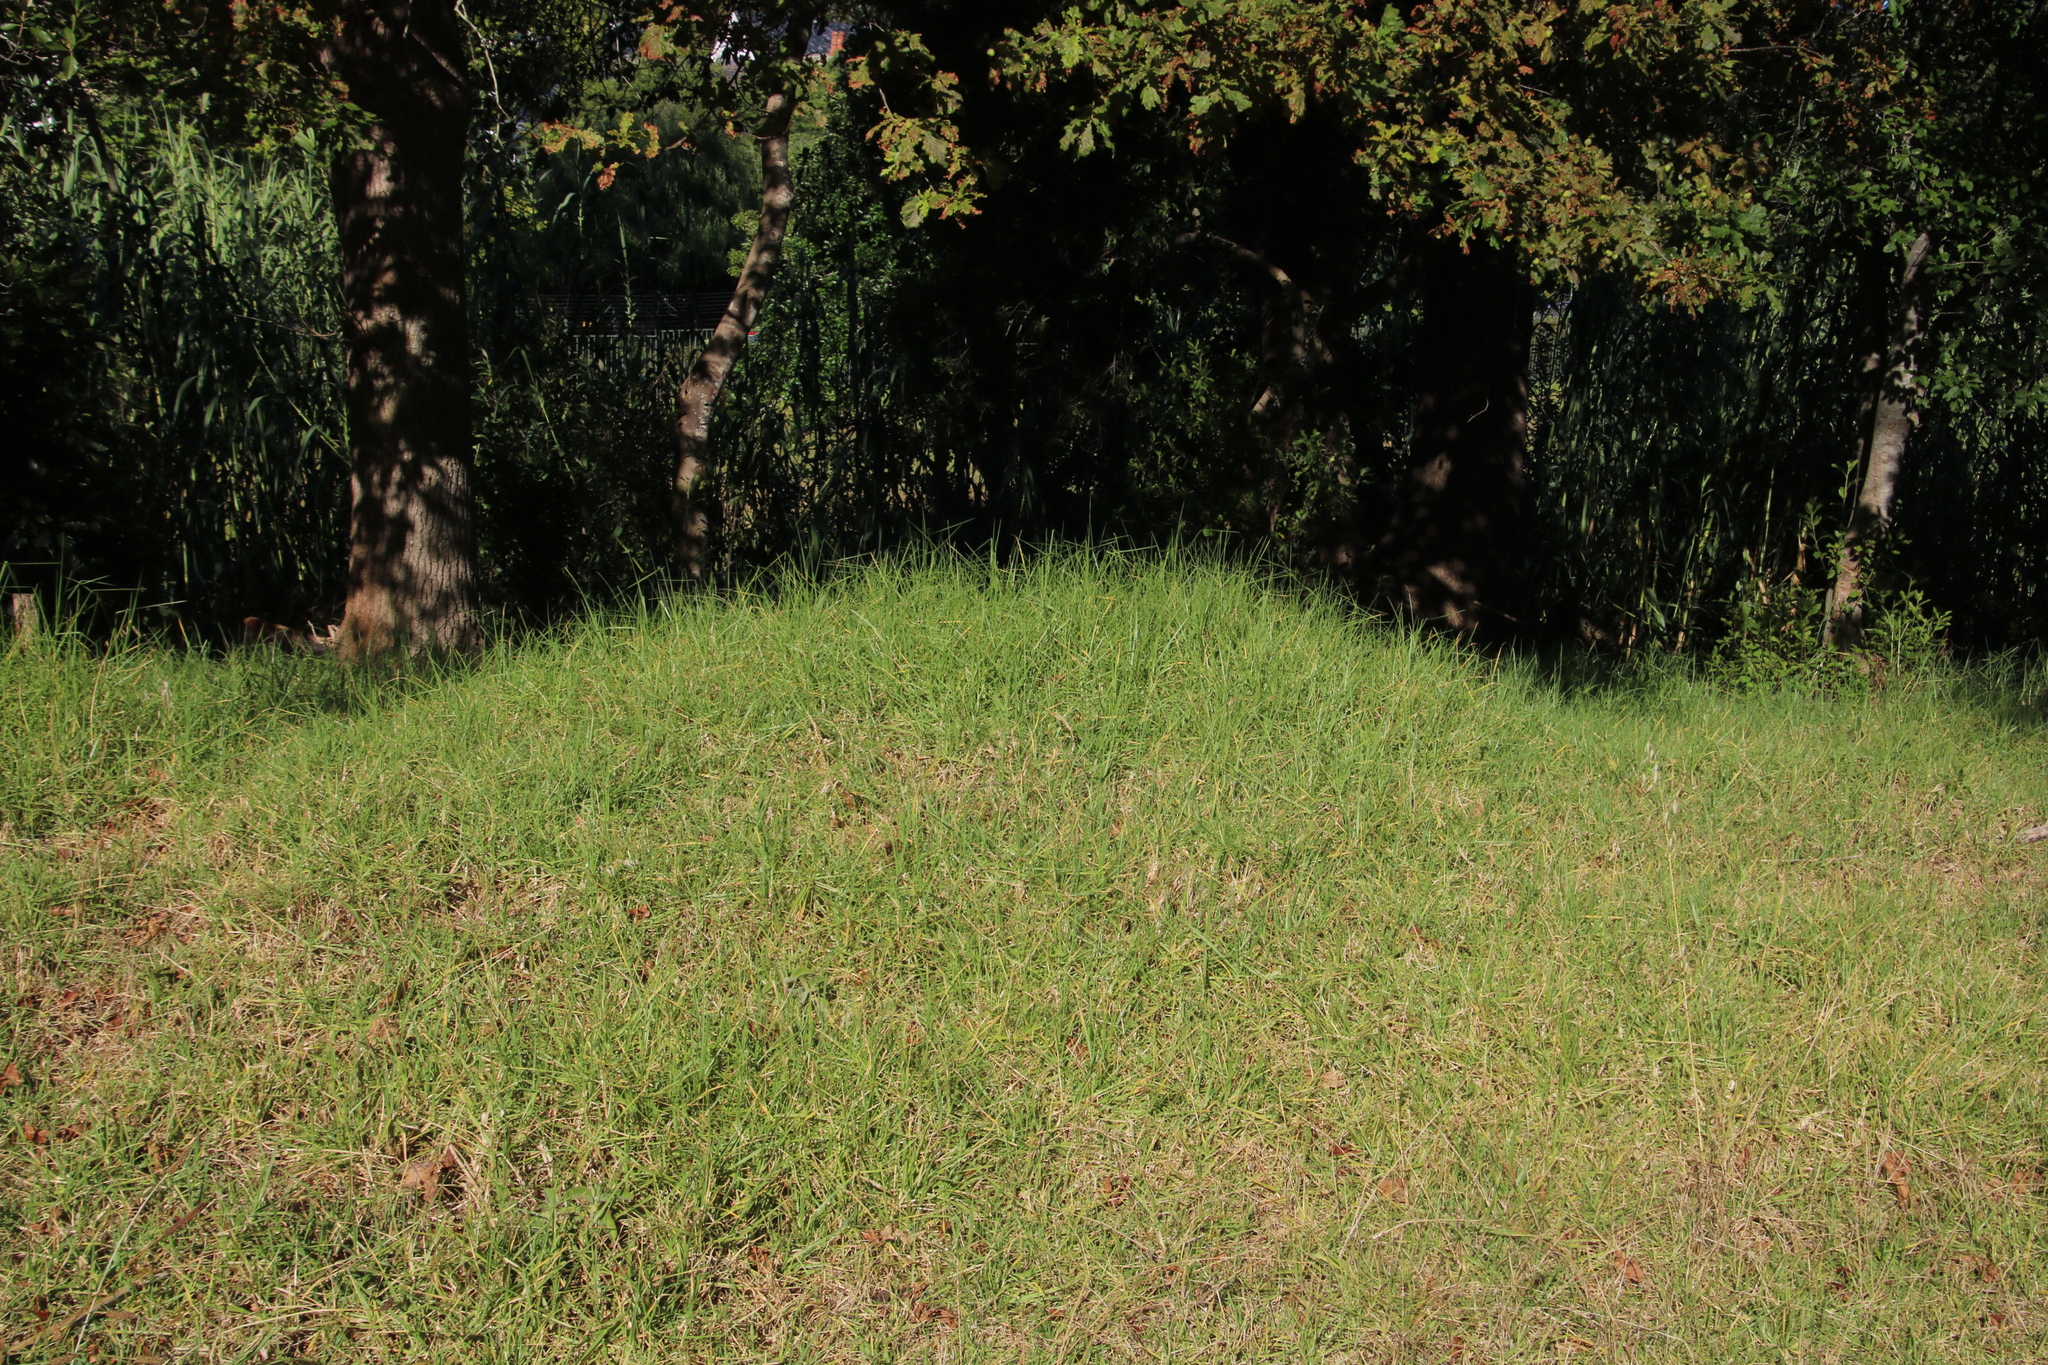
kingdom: Plantae
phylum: Tracheophyta
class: Liliopsida
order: Poales
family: Poaceae
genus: Cenchrus
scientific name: Cenchrus clandestinus
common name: Kikuyugrass
